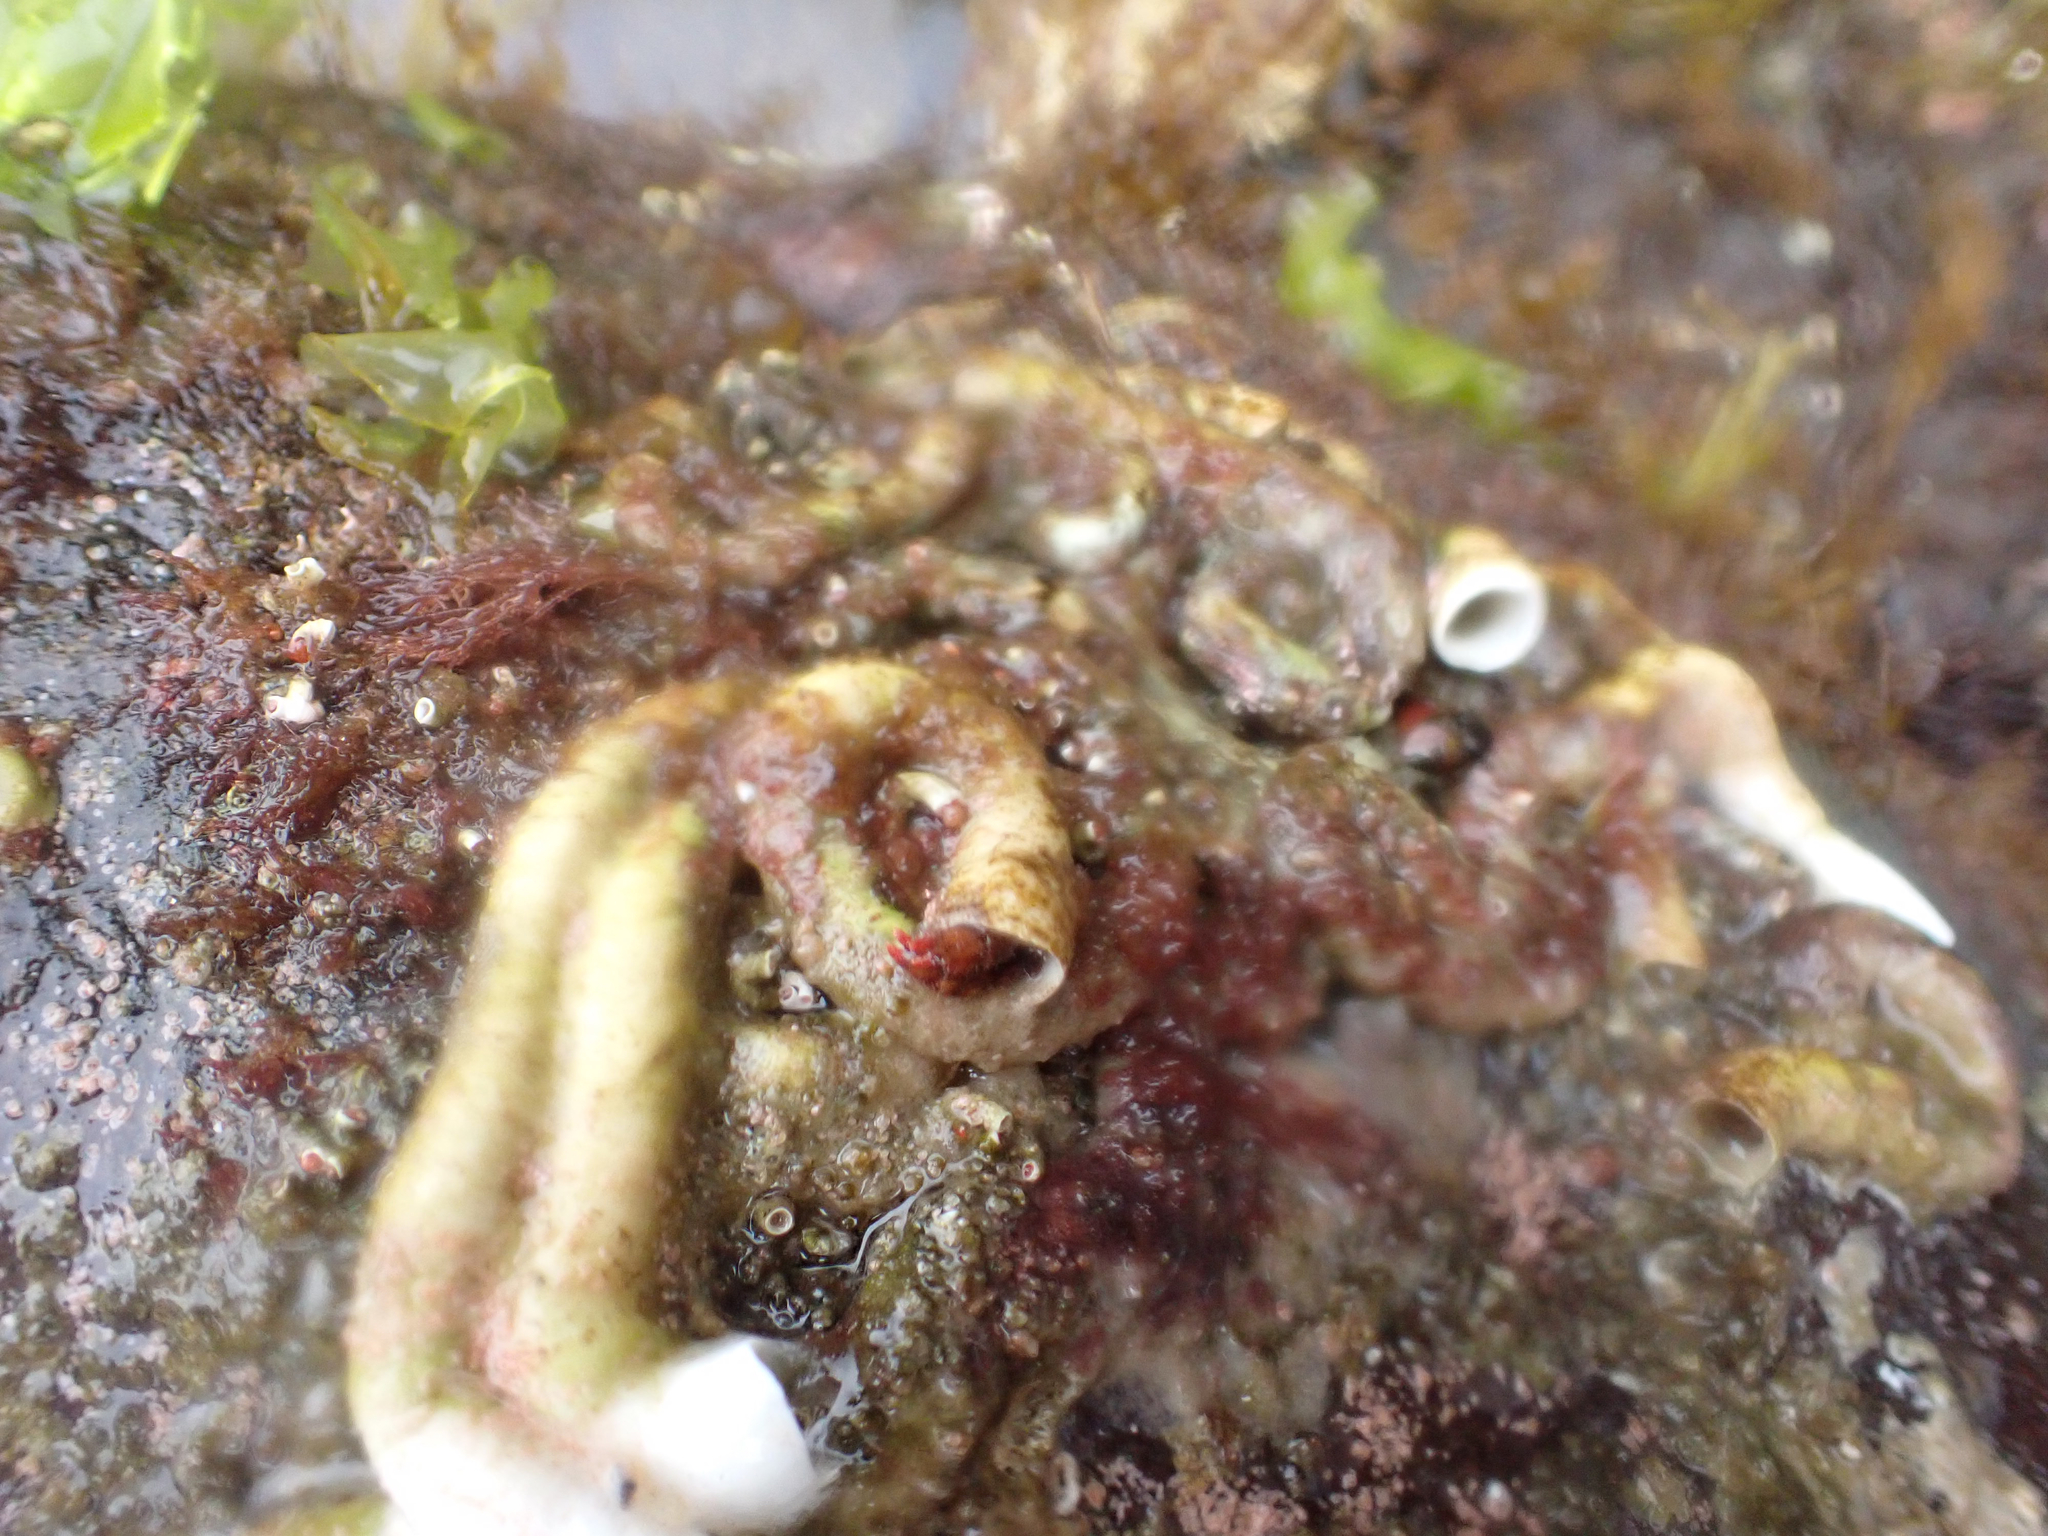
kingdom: Animalia
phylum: Arthropoda
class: Malacostraca
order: Decapoda
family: Paguridae
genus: Discorsopagurus
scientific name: Discorsopagurus schmitti
